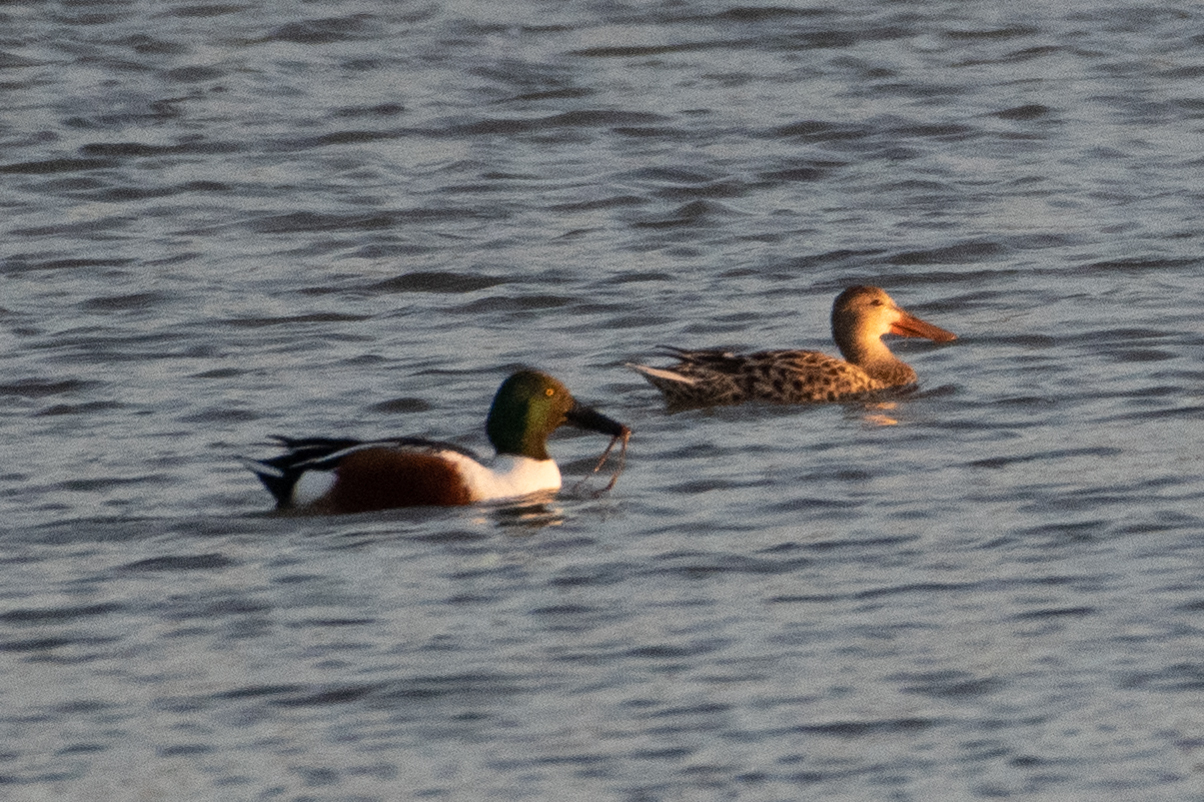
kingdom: Animalia
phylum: Chordata
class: Aves
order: Anseriformes
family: Anatidae
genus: Spatula
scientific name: Spatula clypeata
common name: Northern shoveler
